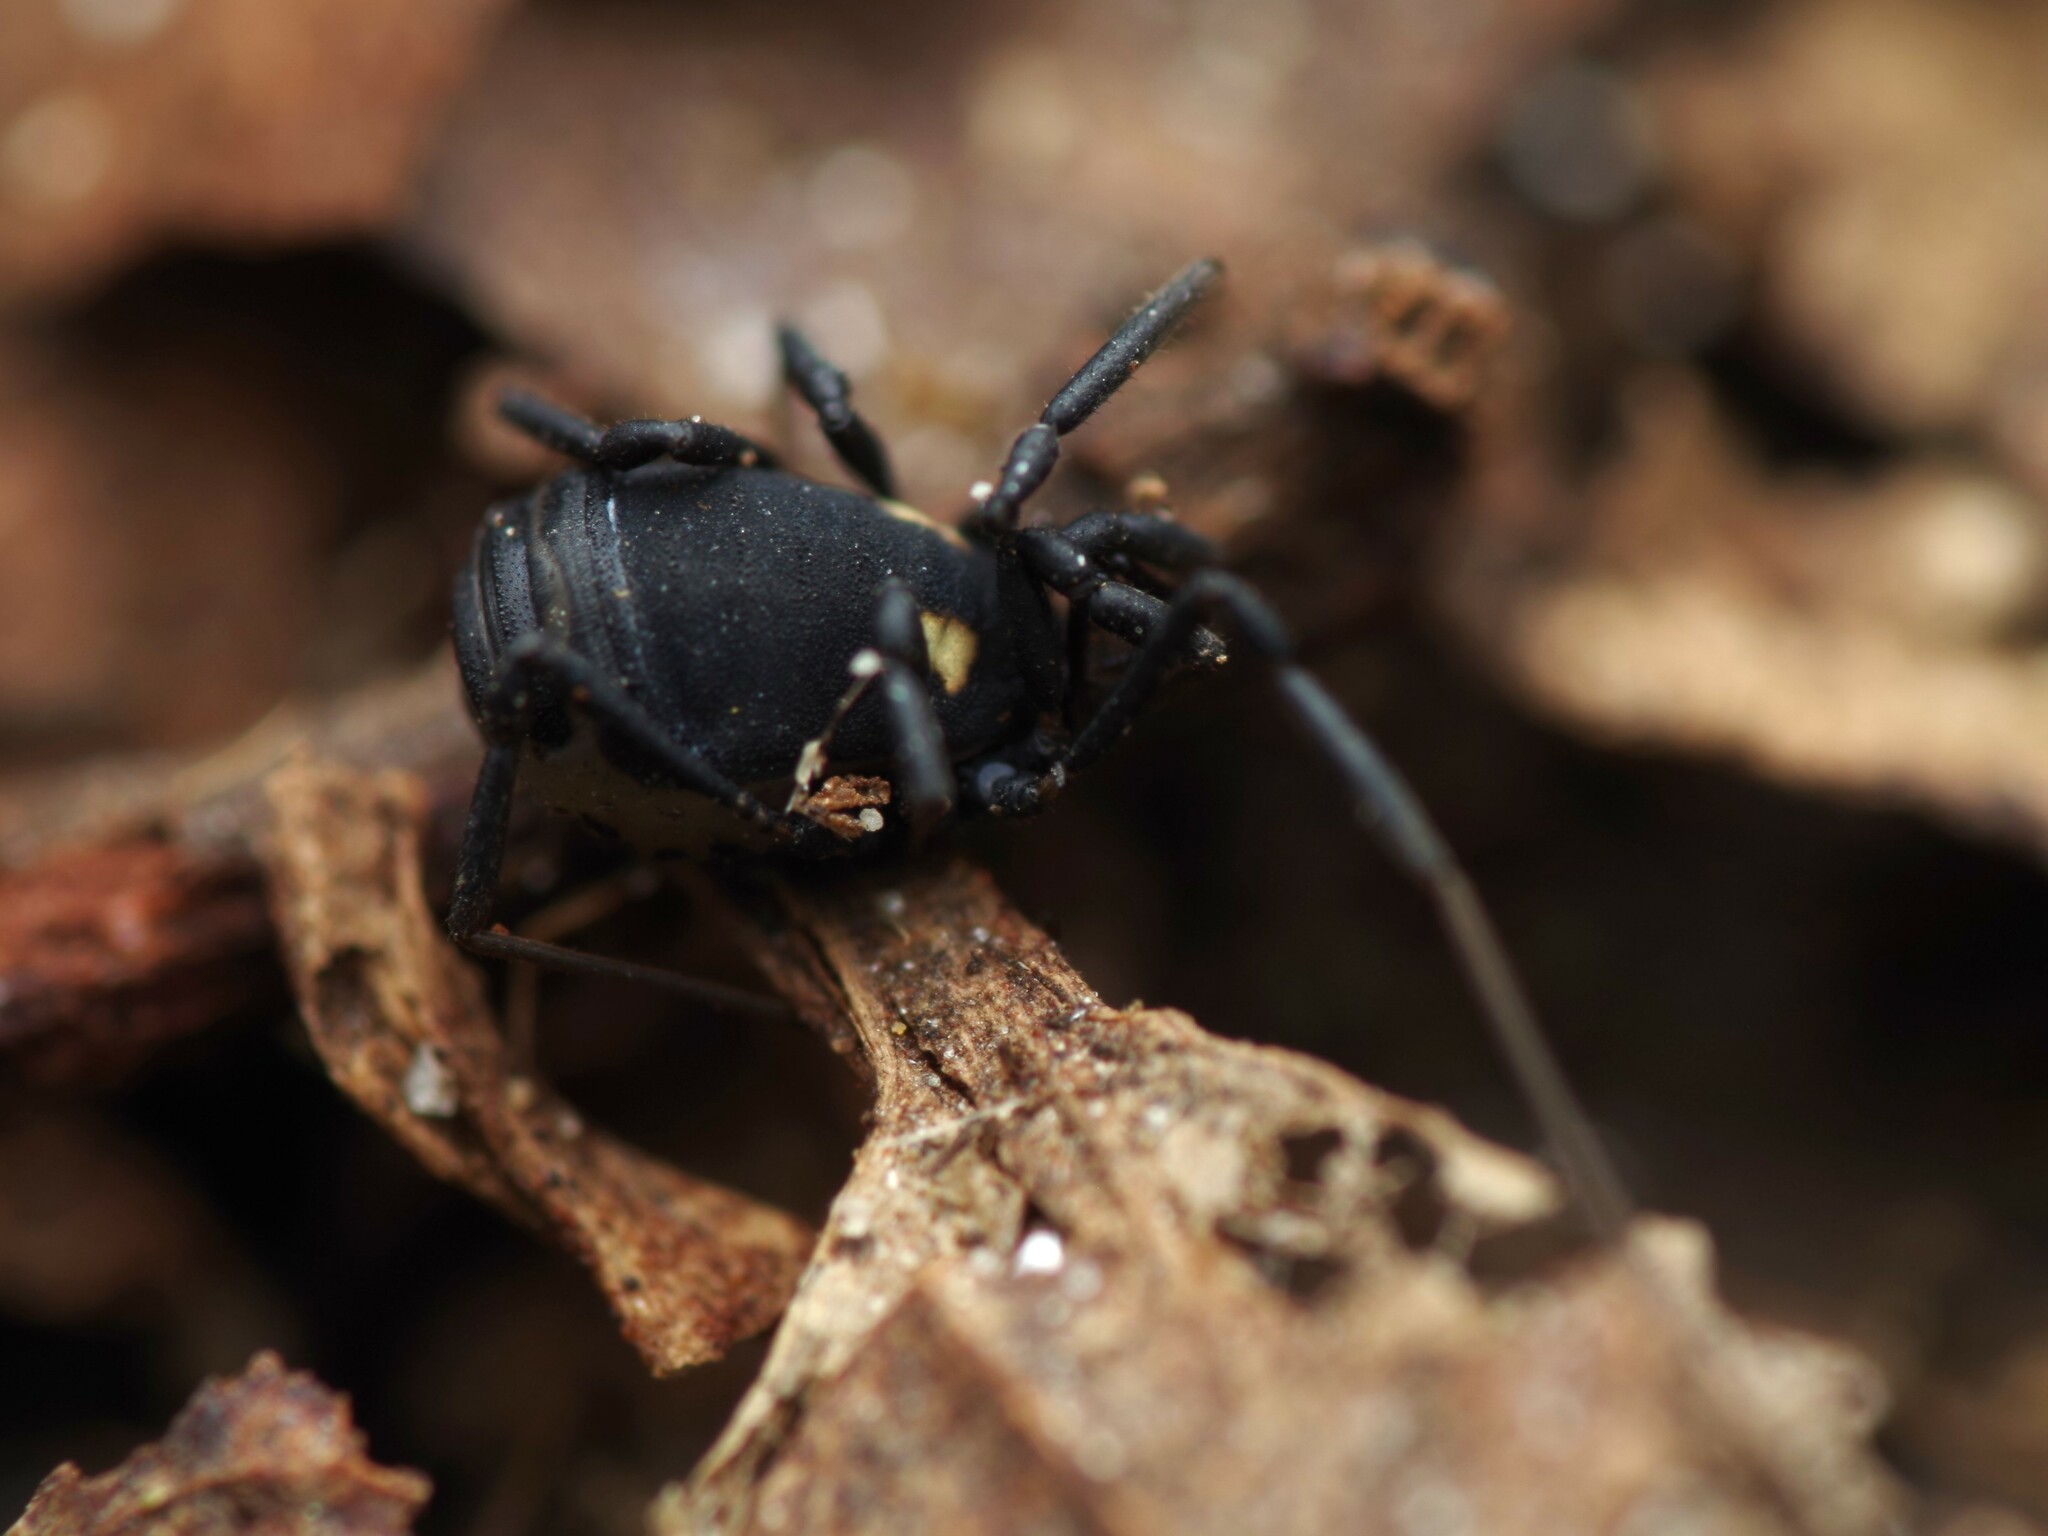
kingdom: Animalia
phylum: Arthropoda
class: Arachnida
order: Opiliones
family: Nemastomatidae
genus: Nemastoma
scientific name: Nemastoma bimaculatum
